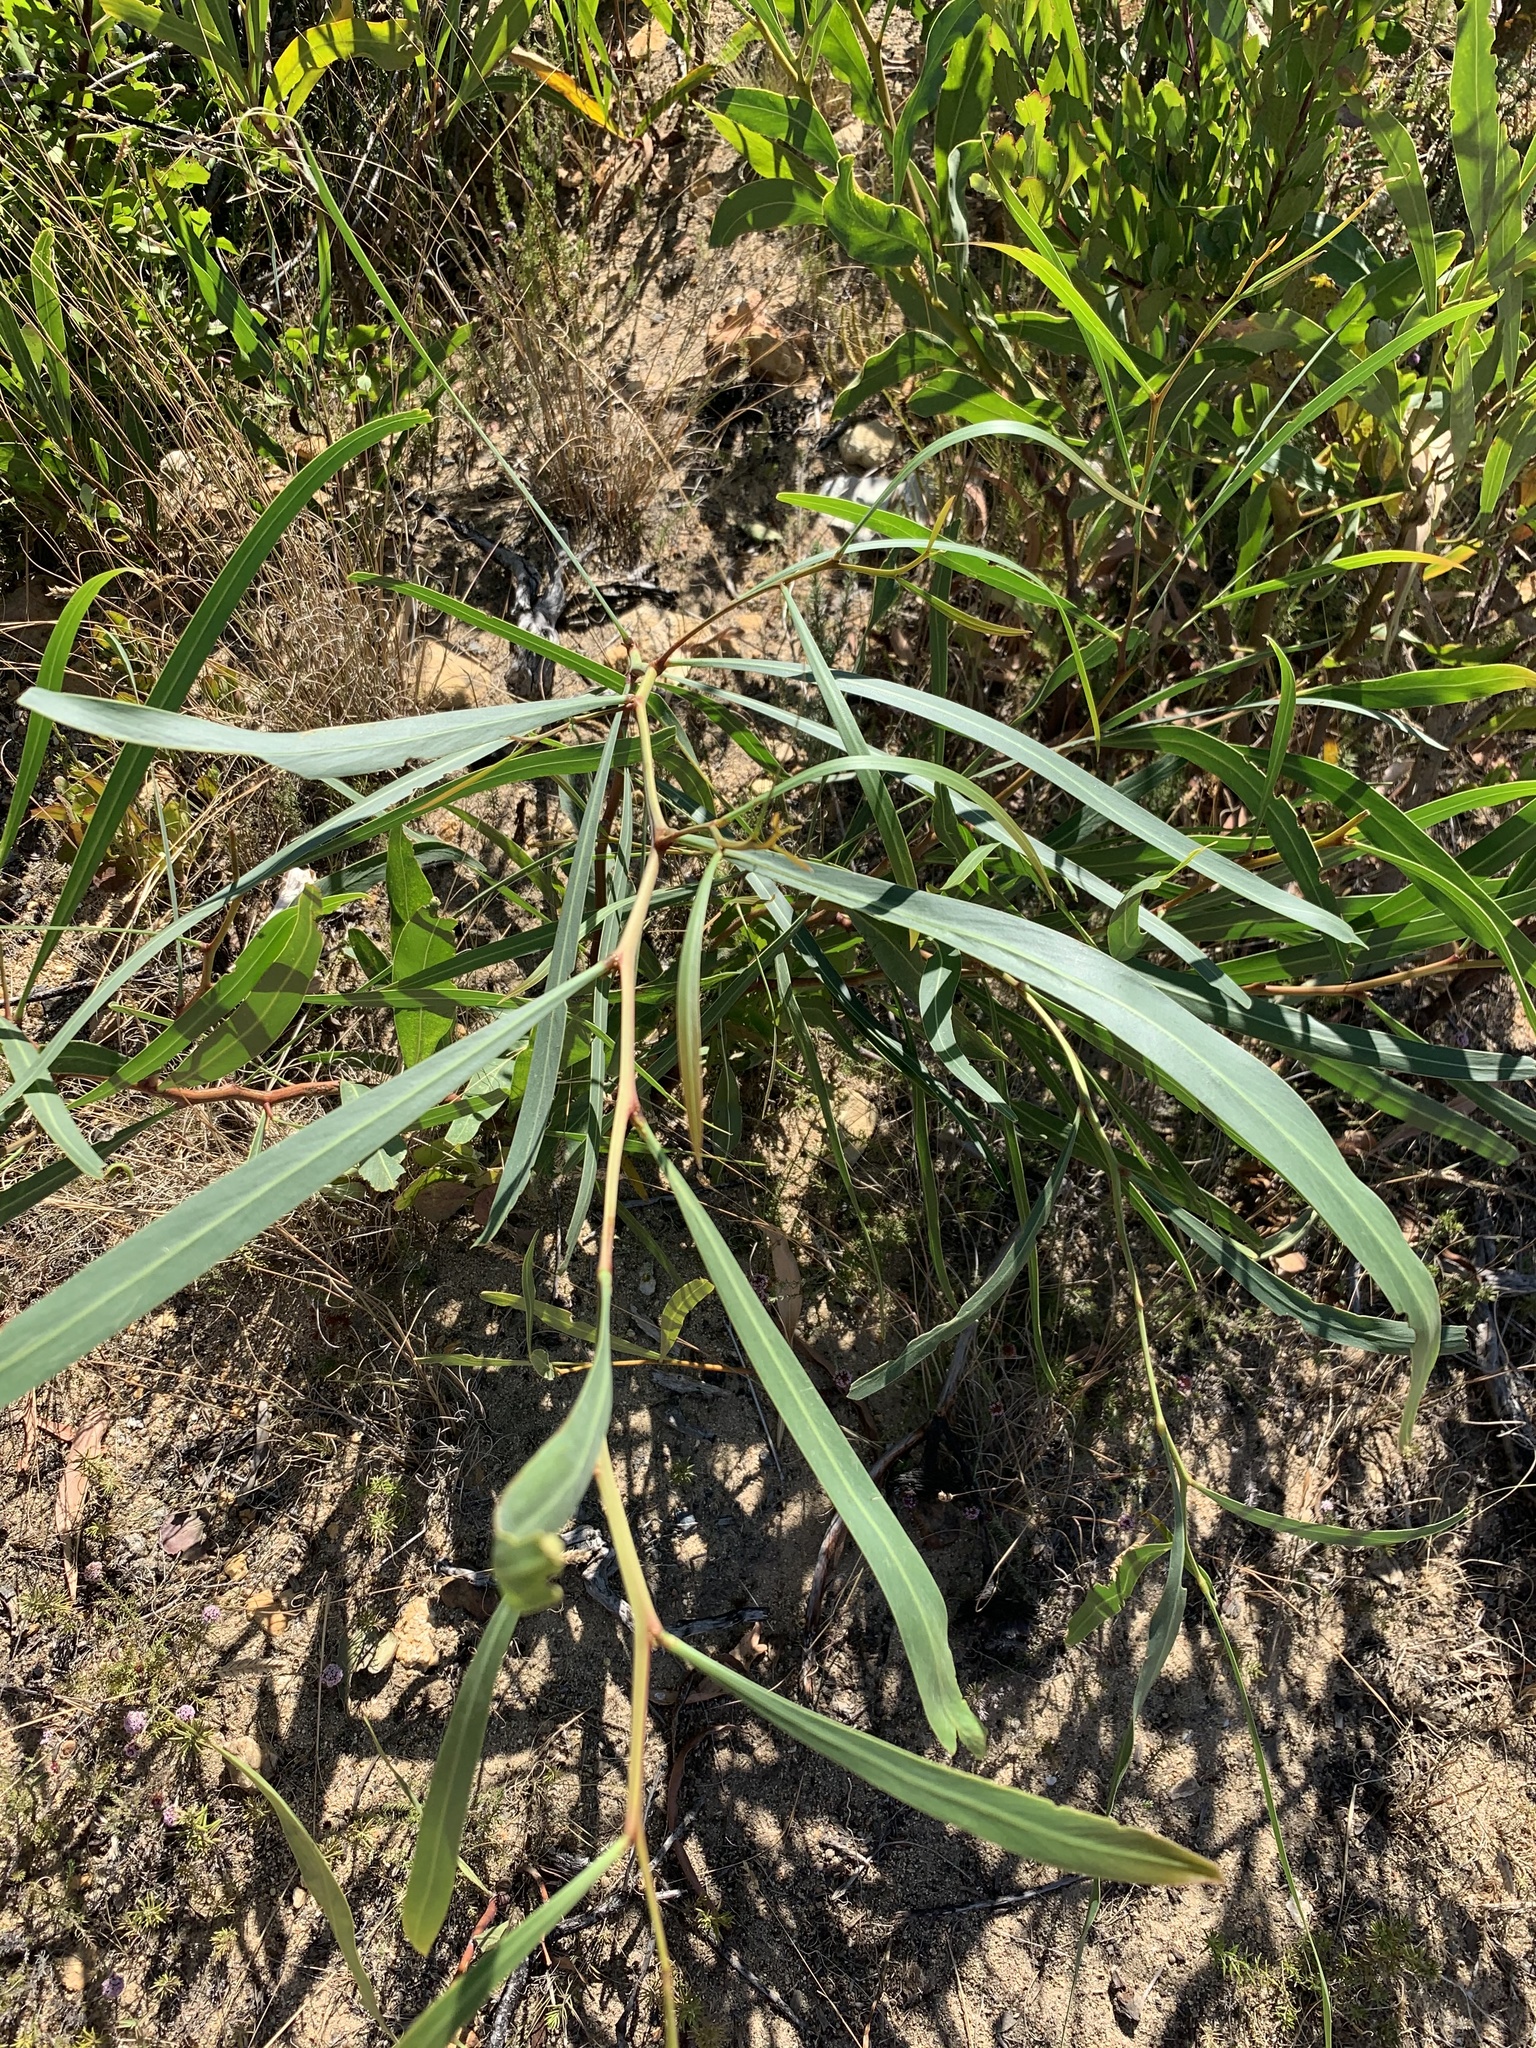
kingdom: Plantae
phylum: Tracheophyta
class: Magnoliopsida
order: Fabales
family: Fabaceae
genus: Acacia
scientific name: Acacia saligna
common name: Orange wattle
